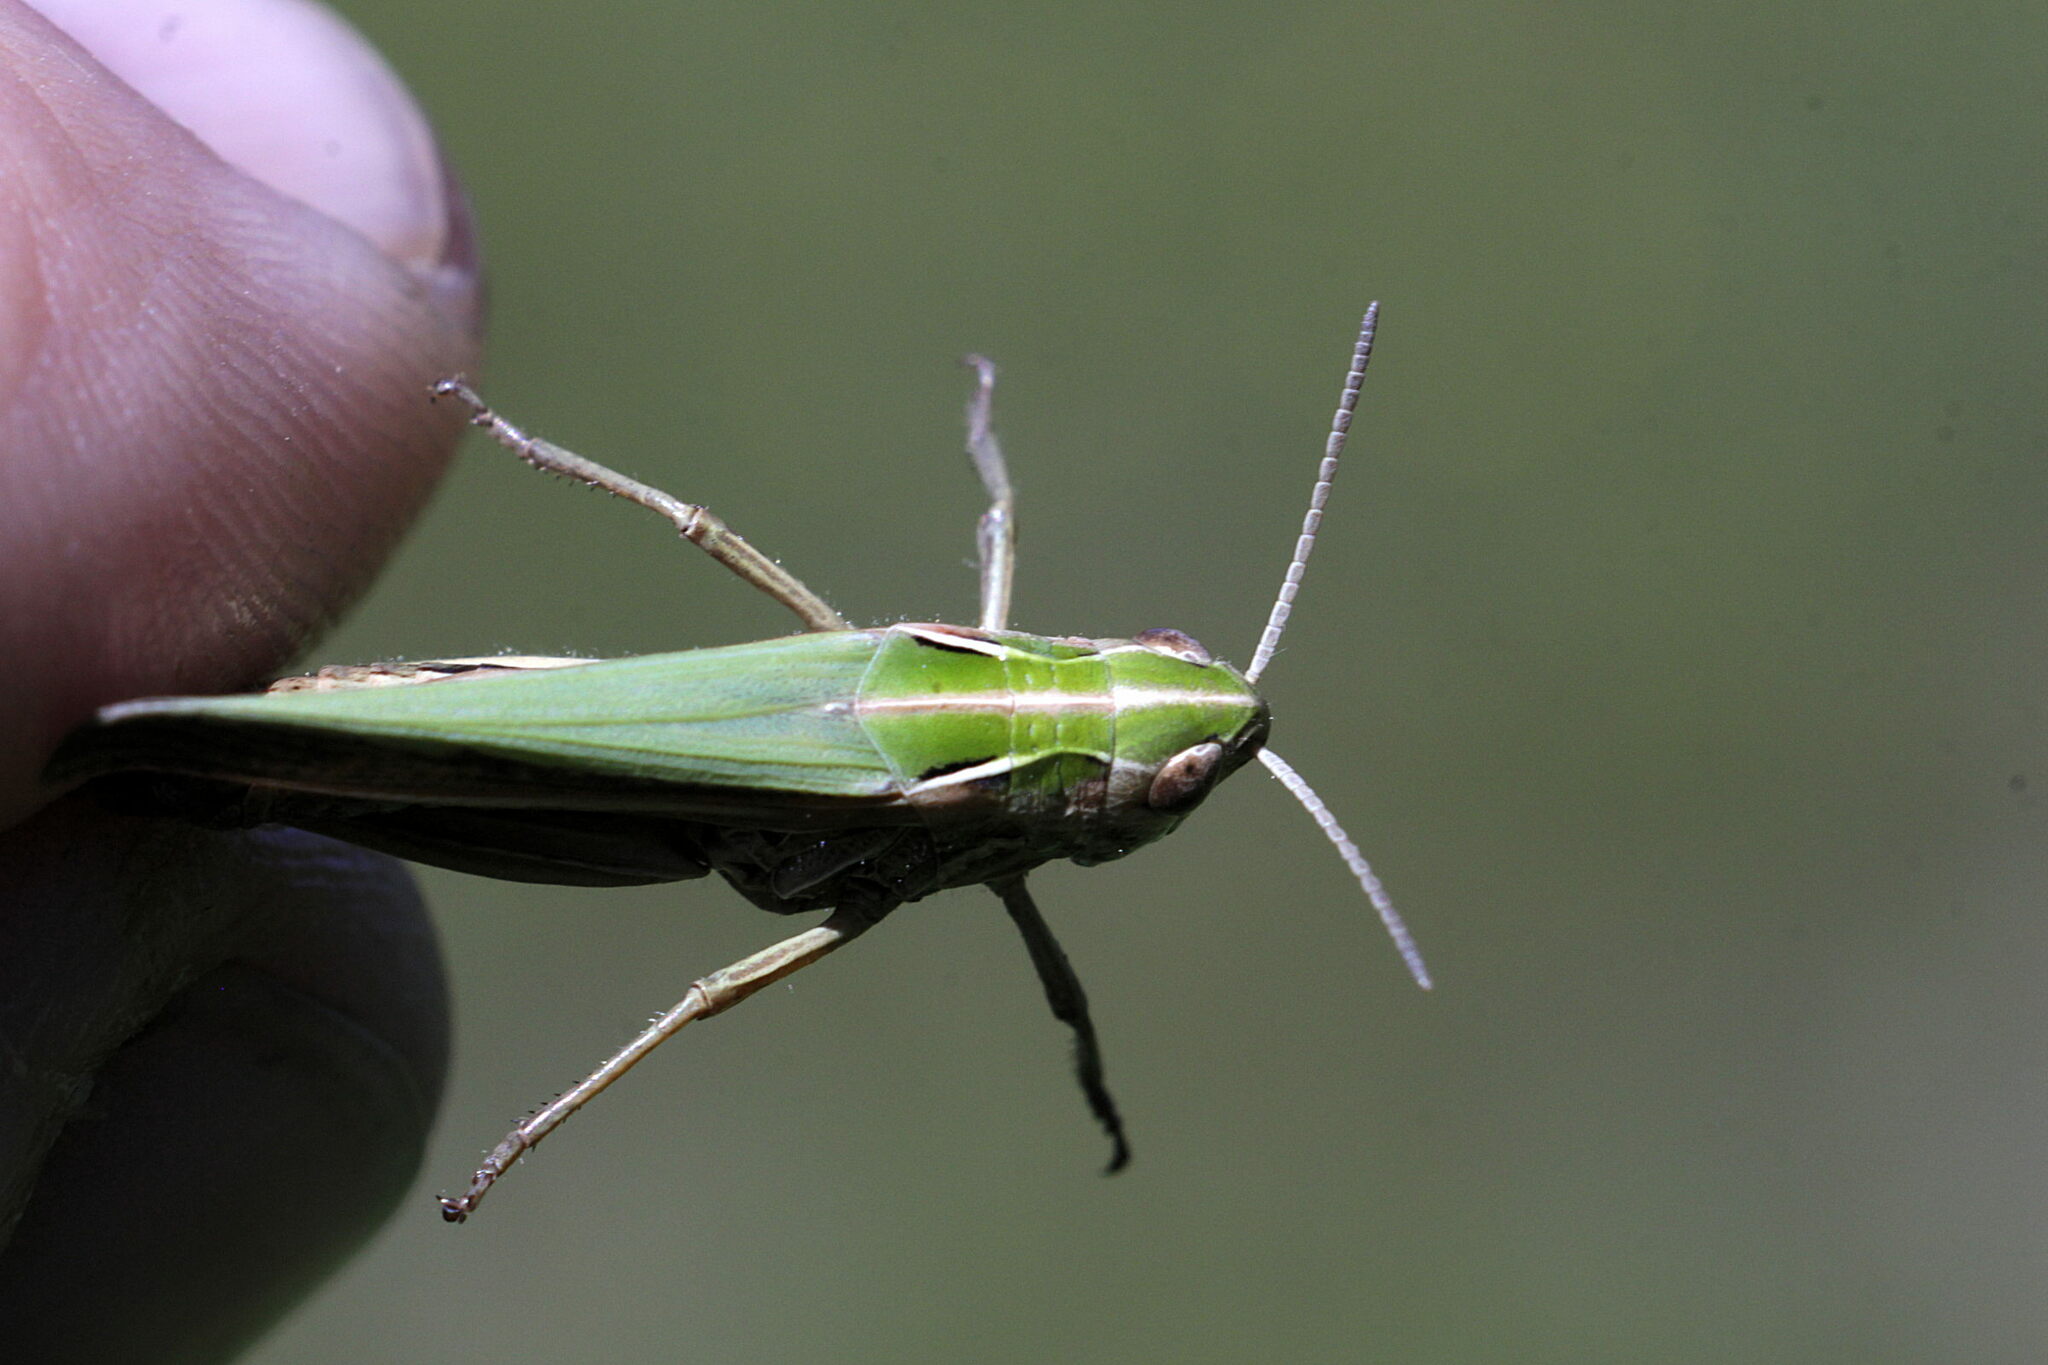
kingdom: Animalia
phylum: Arthropoda
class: Insecta
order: Orthoptera
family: Acrididae
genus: Omocestus
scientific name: Omocestus viridulus
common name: Common green grasshopper
